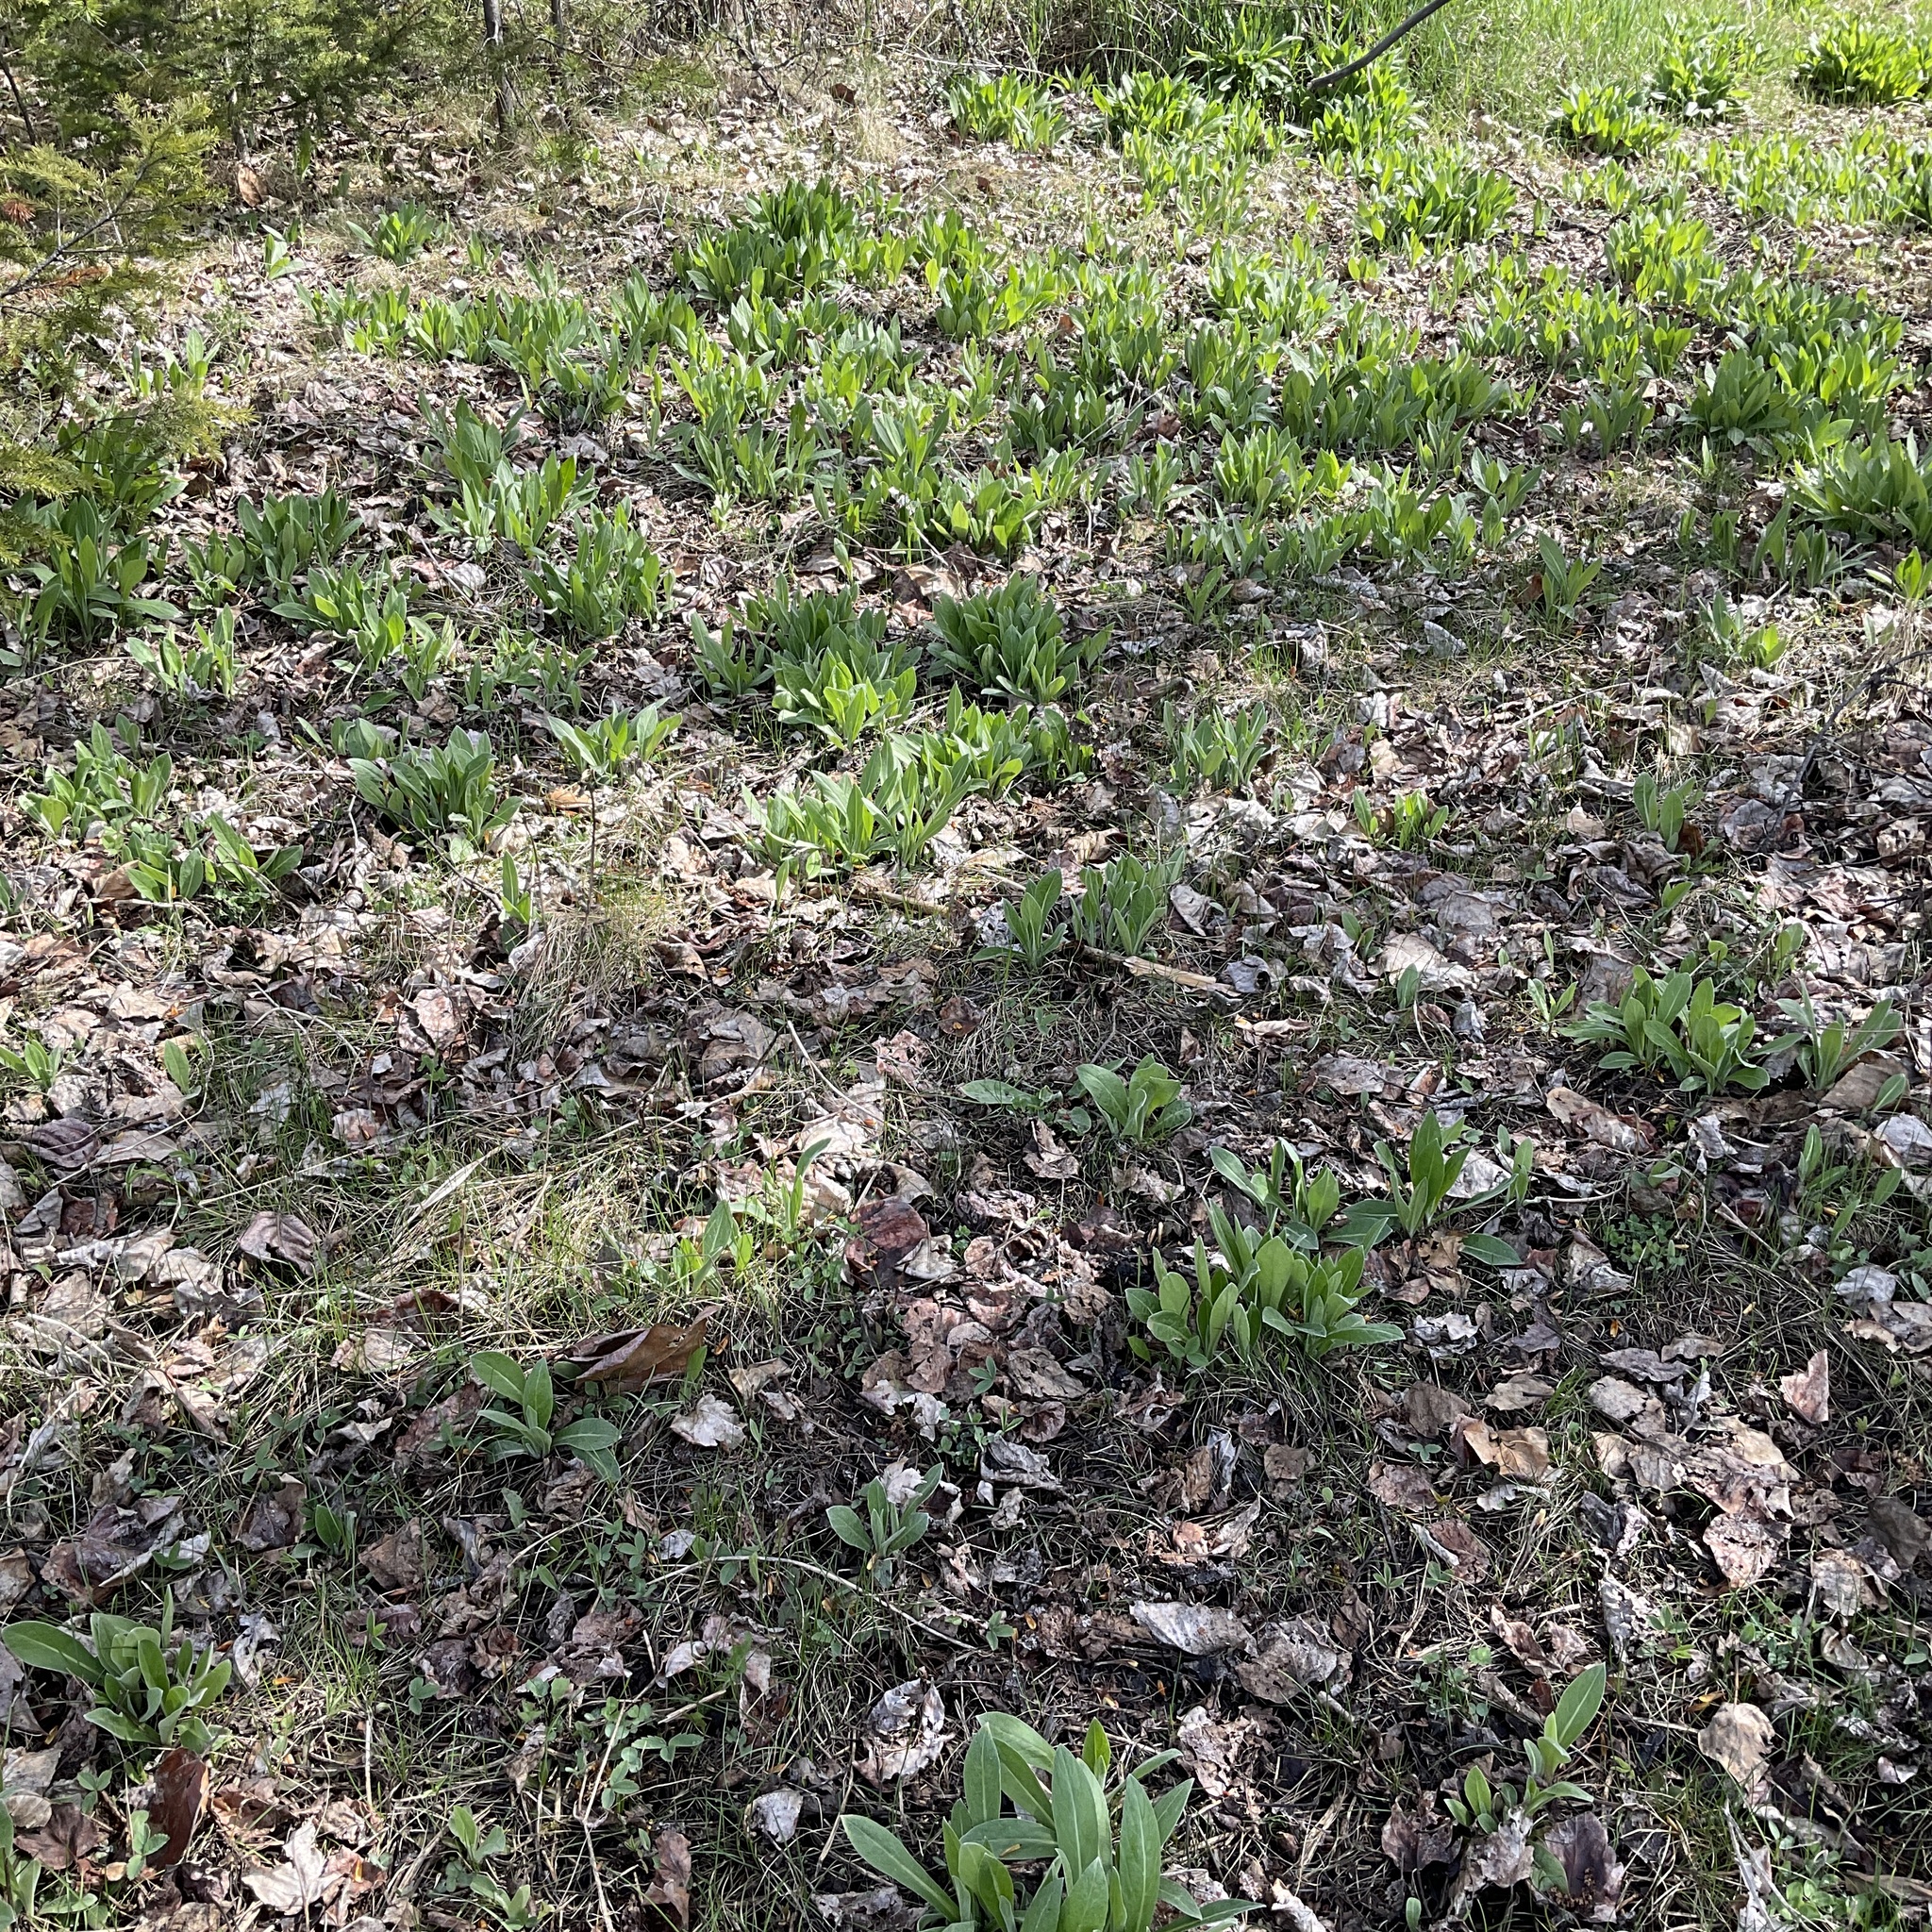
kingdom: Plantae
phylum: Tracheophyta
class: Magnoliopsida
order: Asterales
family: Asteraceae
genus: Centaurea
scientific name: Centaurea montana
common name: Perennial cornflower
